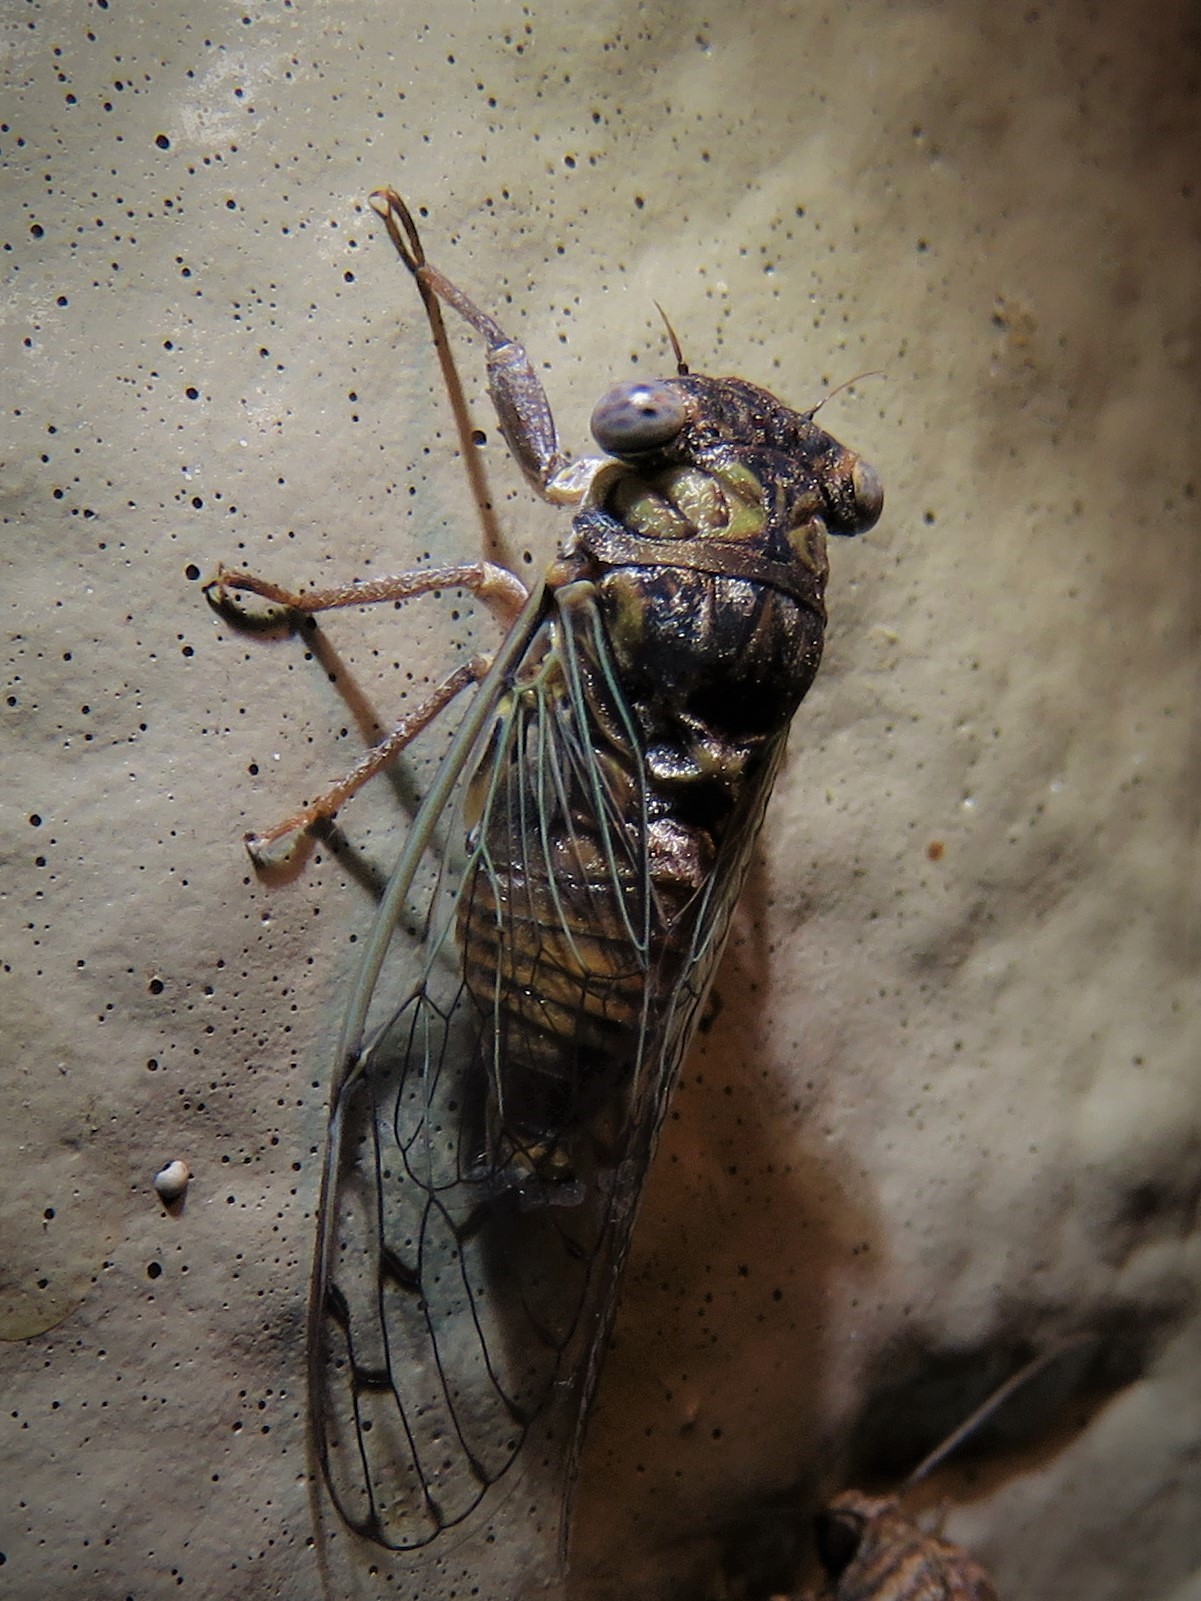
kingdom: Animalia
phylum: Arthropoda
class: Insecta
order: Hemiptera
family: Cicadidae
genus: Pacarina
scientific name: Pacarina puella
